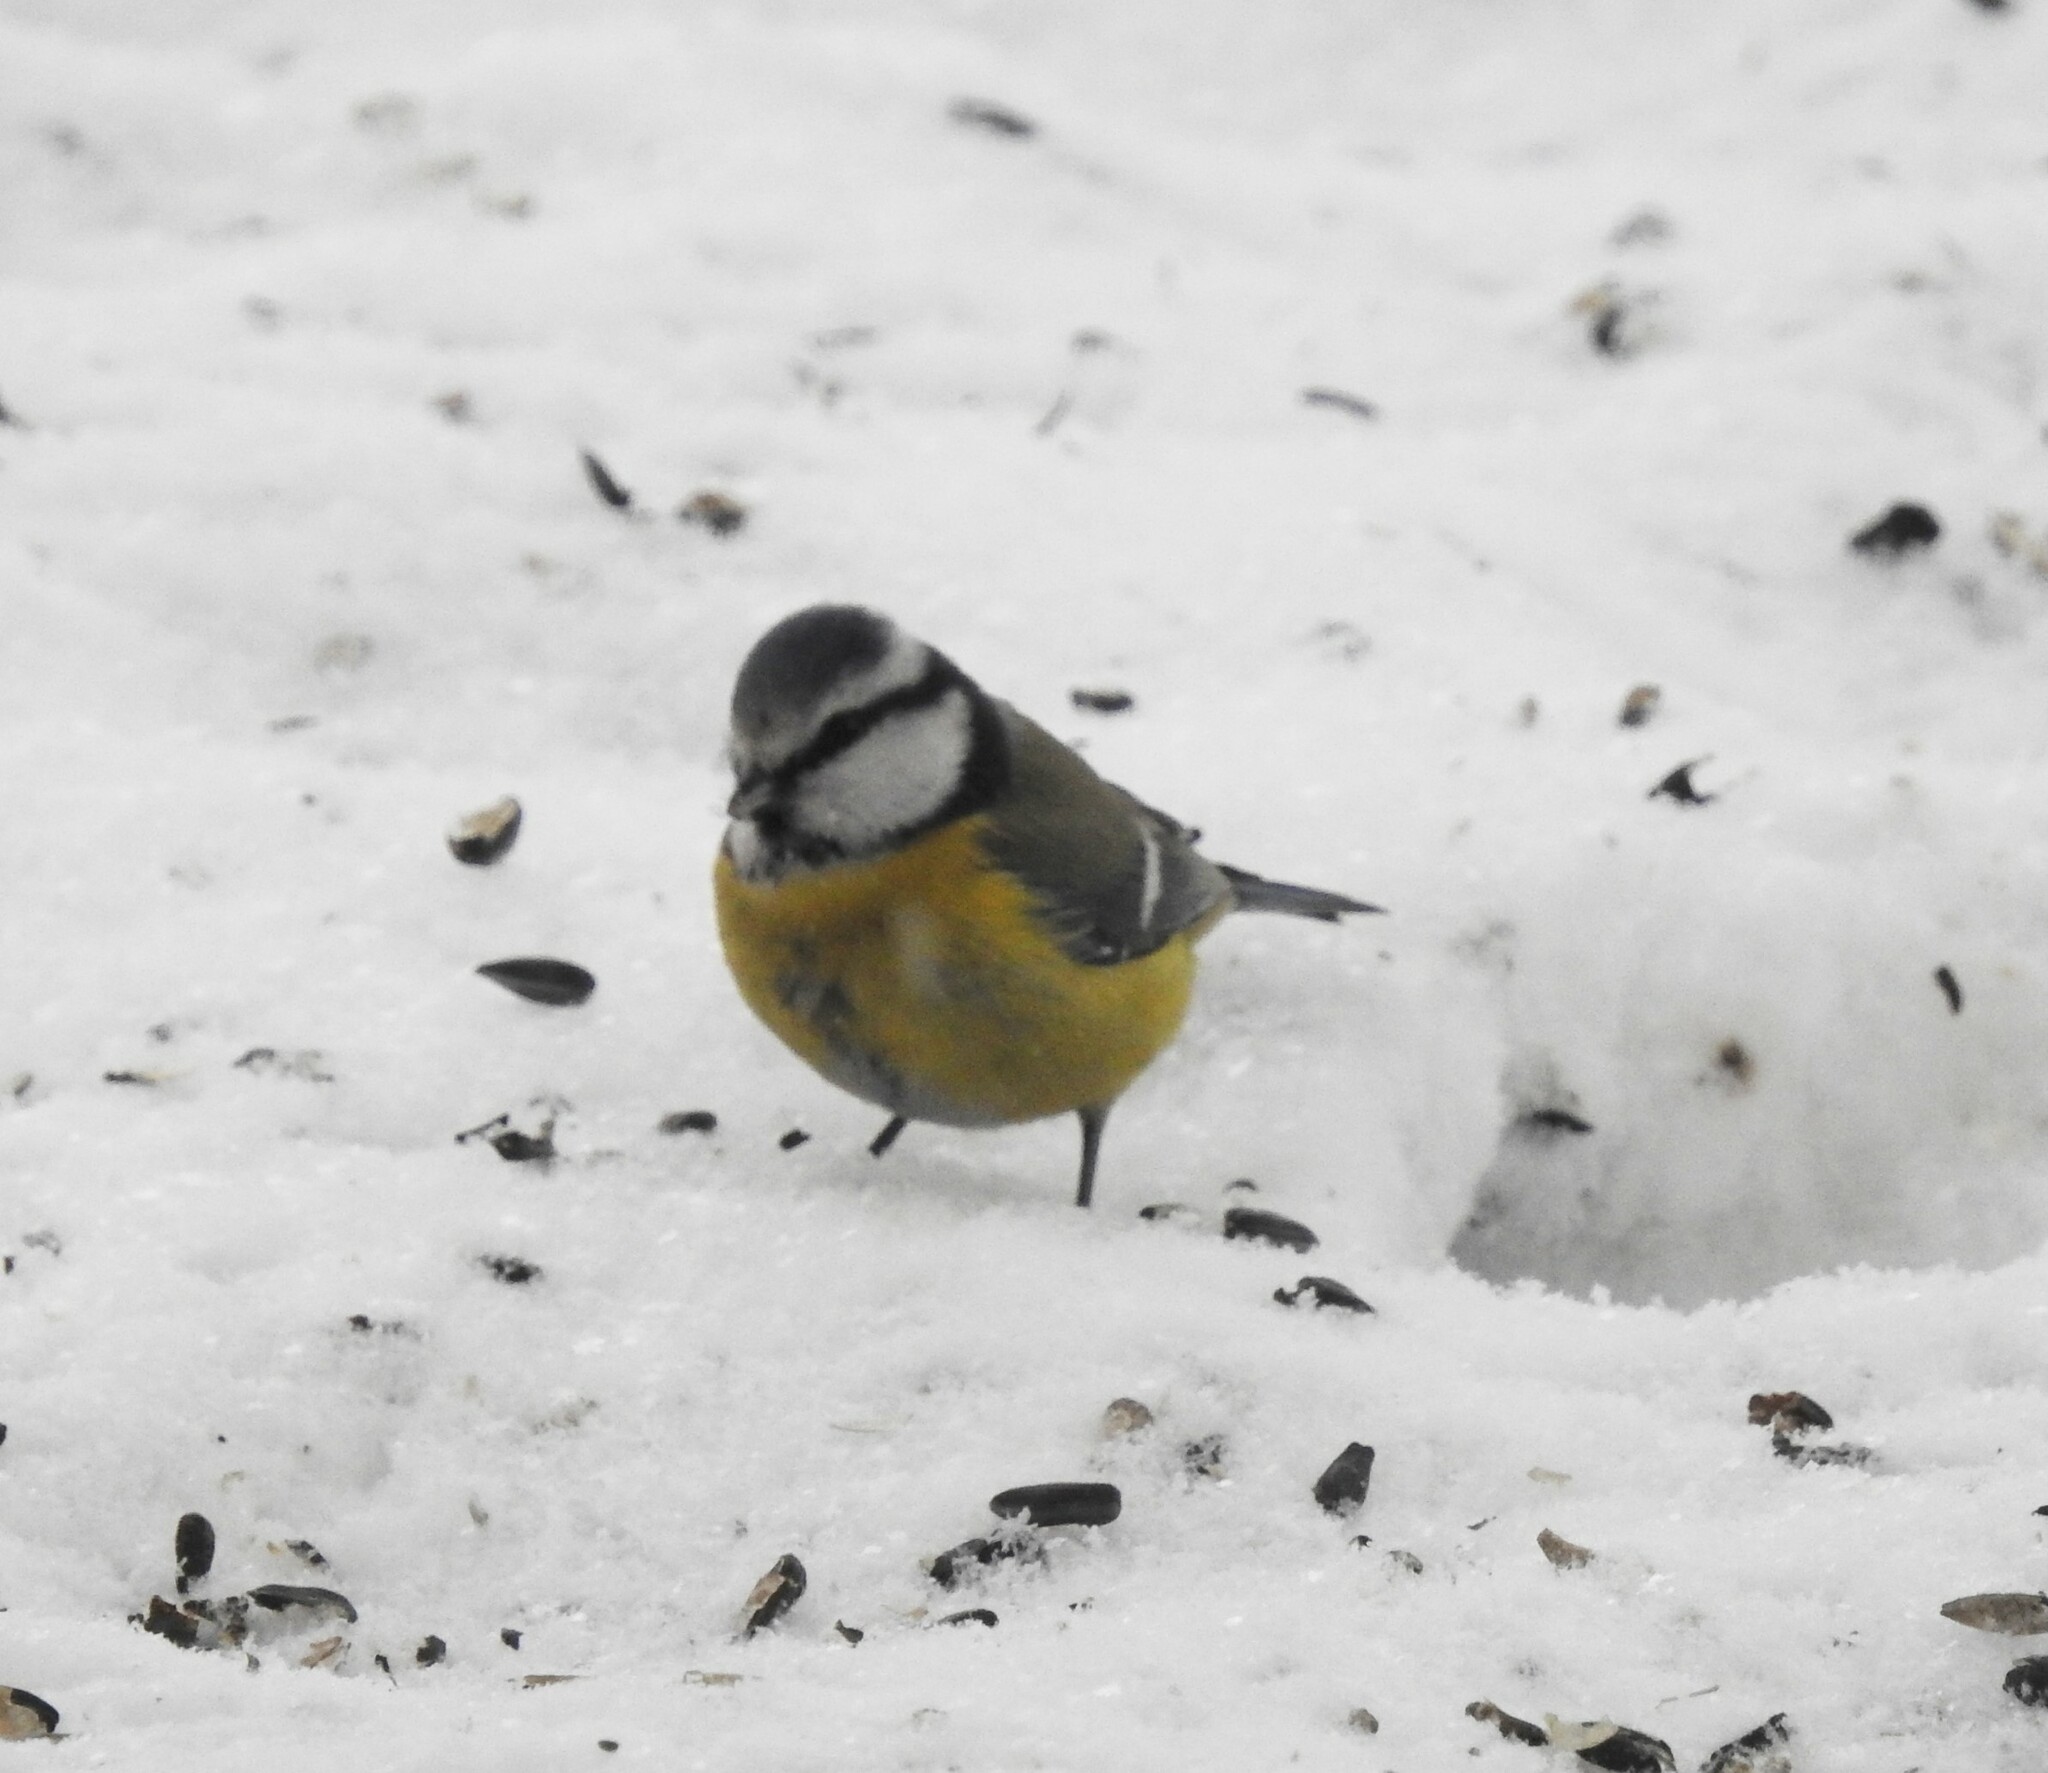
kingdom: Animalia
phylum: Chordata
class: Aves
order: Passeriformes
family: Paridae
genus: Cyanistes
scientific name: Cyanistes caeruleus
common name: Eurasian blue tit
